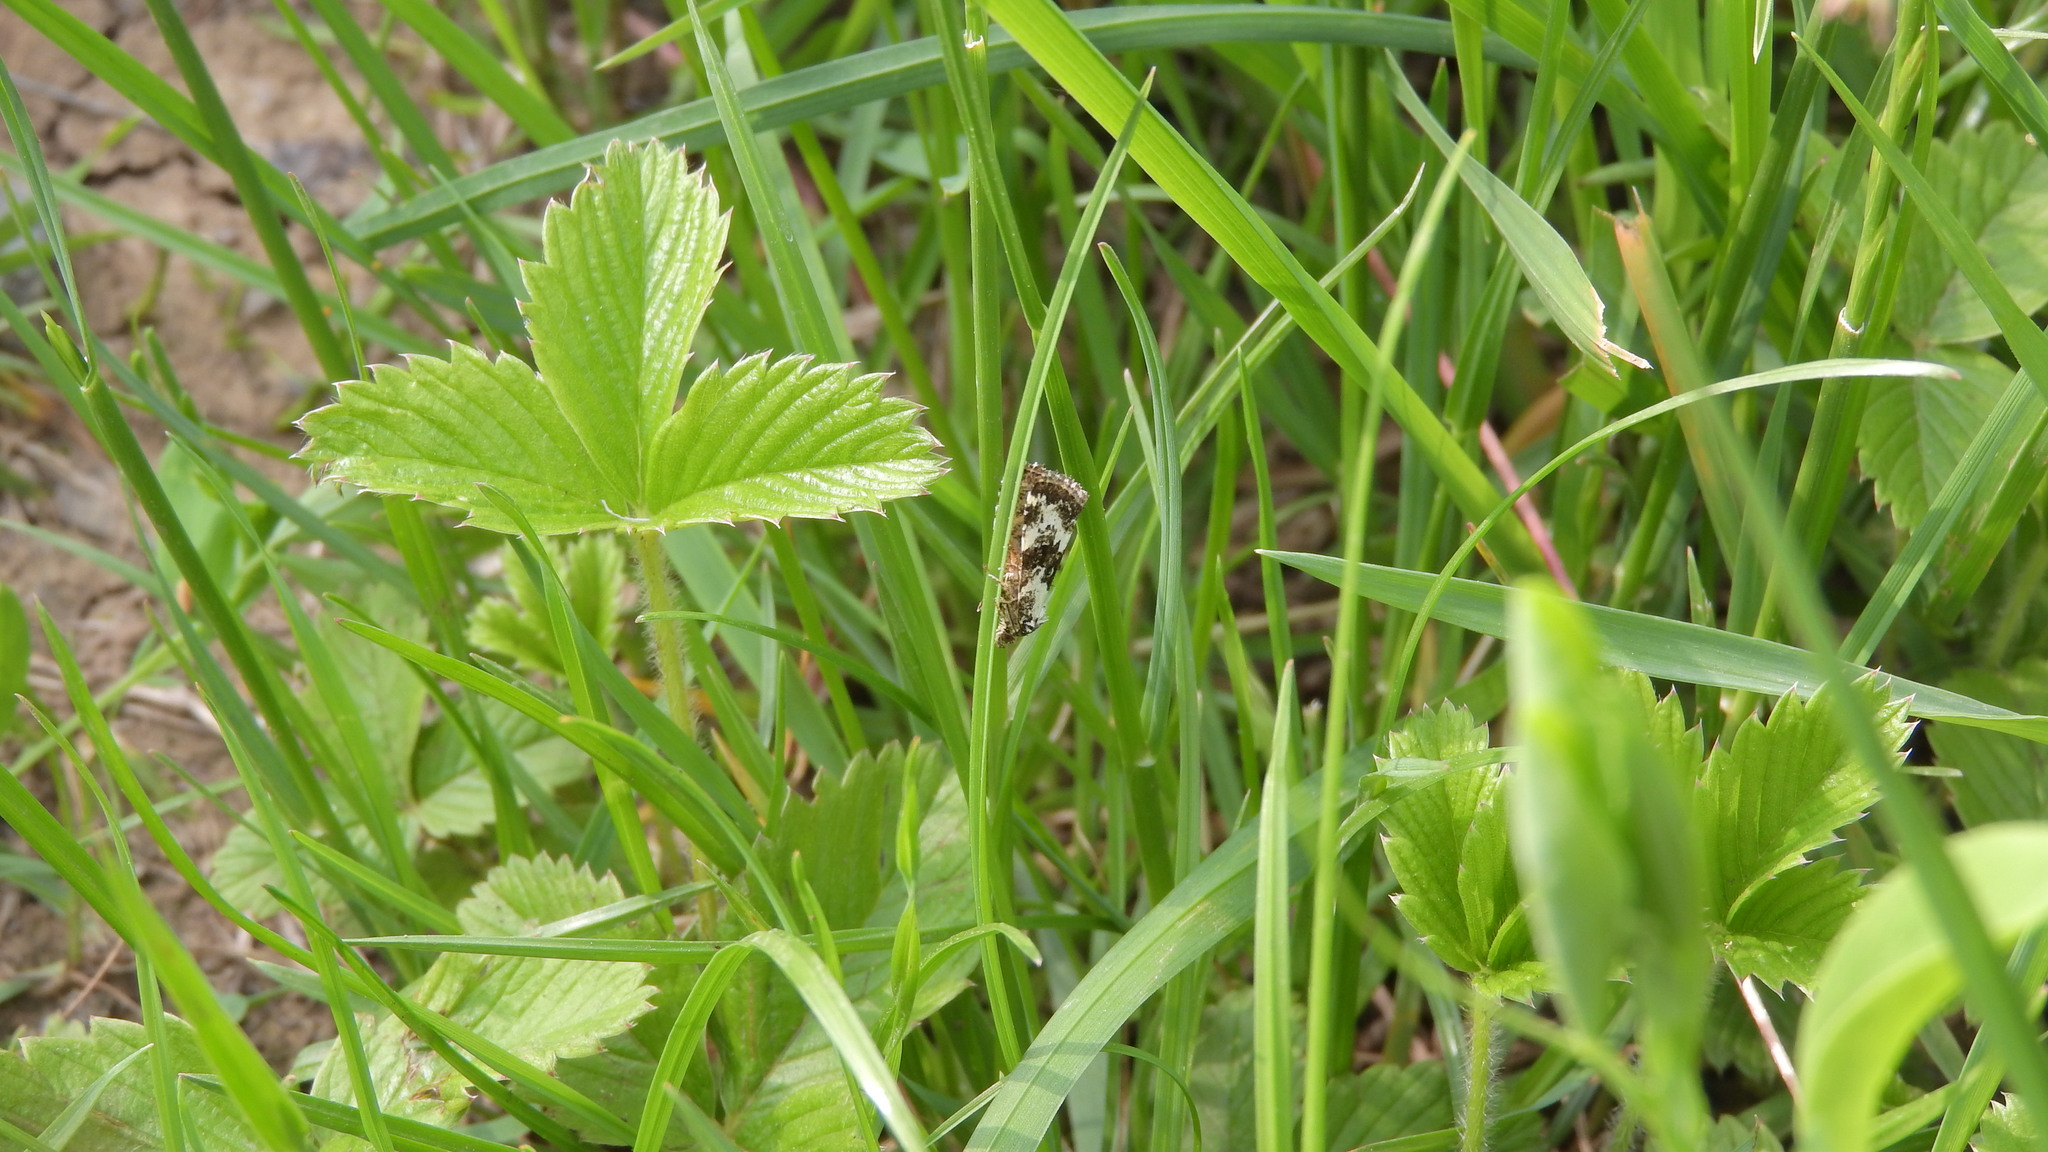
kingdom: Animalia
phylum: Arthropoda
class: Insecta
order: Lepidoptera
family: Noctuidae
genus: Deltote
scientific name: Deltote deceptoria
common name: Pretty marbled
